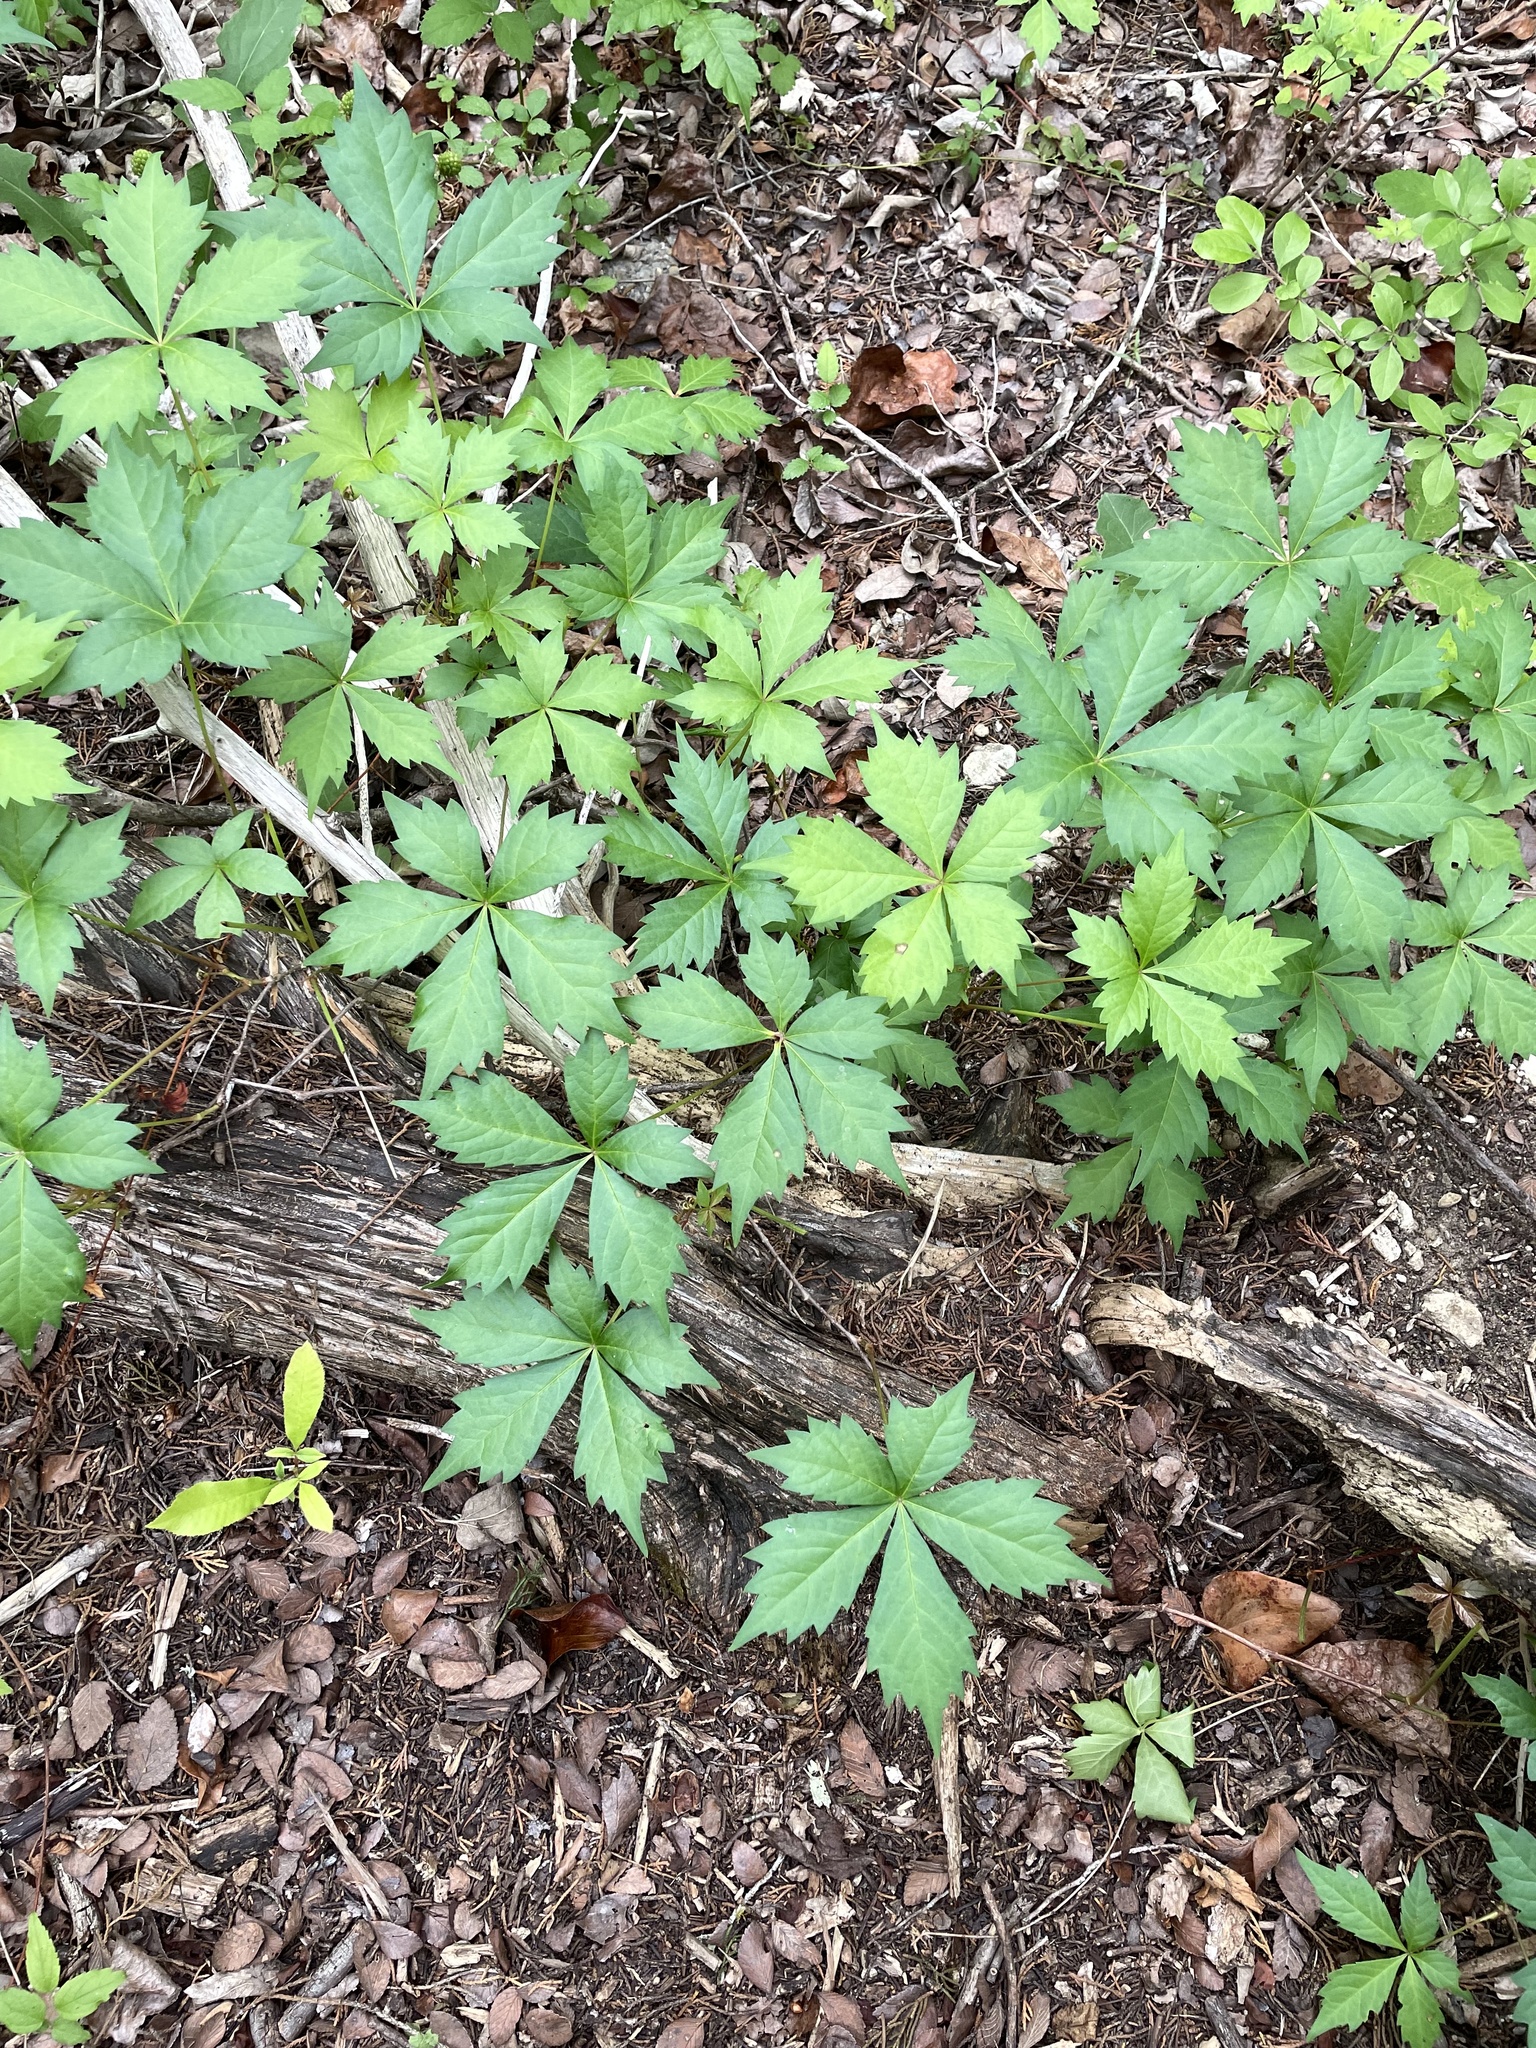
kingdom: Plantae
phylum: Tracheophyta
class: Magnoliopsida
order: Vitales
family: Vitaceae
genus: Parthenocissus
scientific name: Parthenocissus quinquefolia
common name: Virginia-creeper
